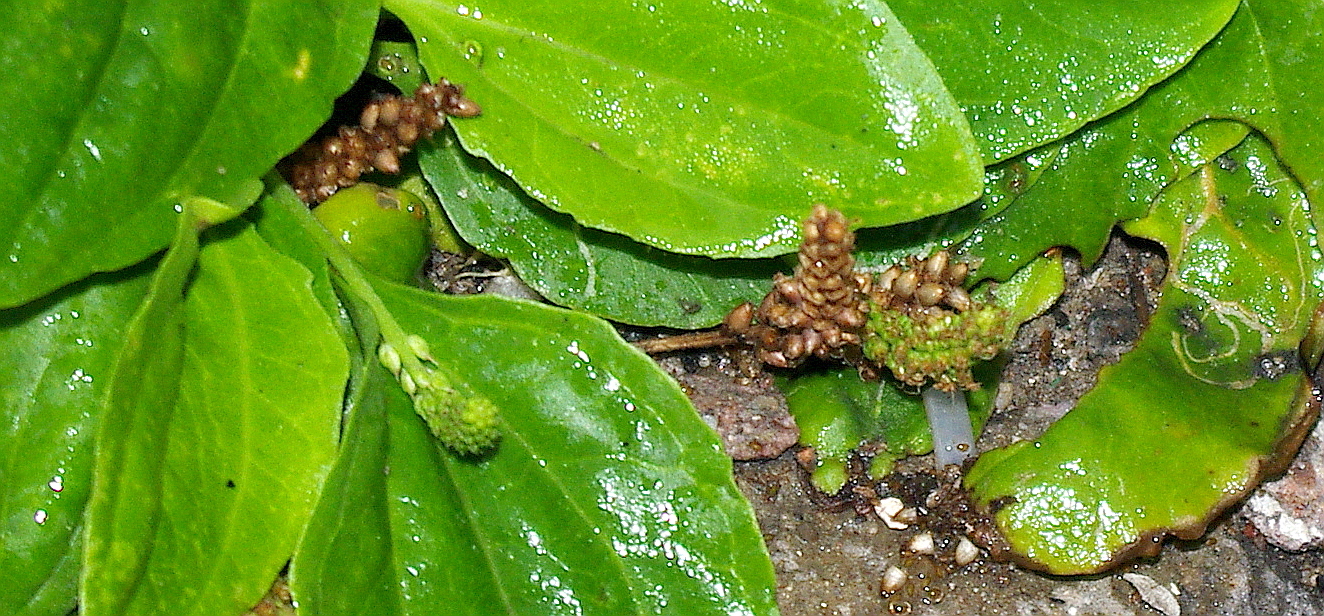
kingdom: Plantae
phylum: Tracheophyta
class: Magnoliopsida
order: Lamiales
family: Plantaginaceae
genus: Plantago
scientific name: Plantago uliginosa
